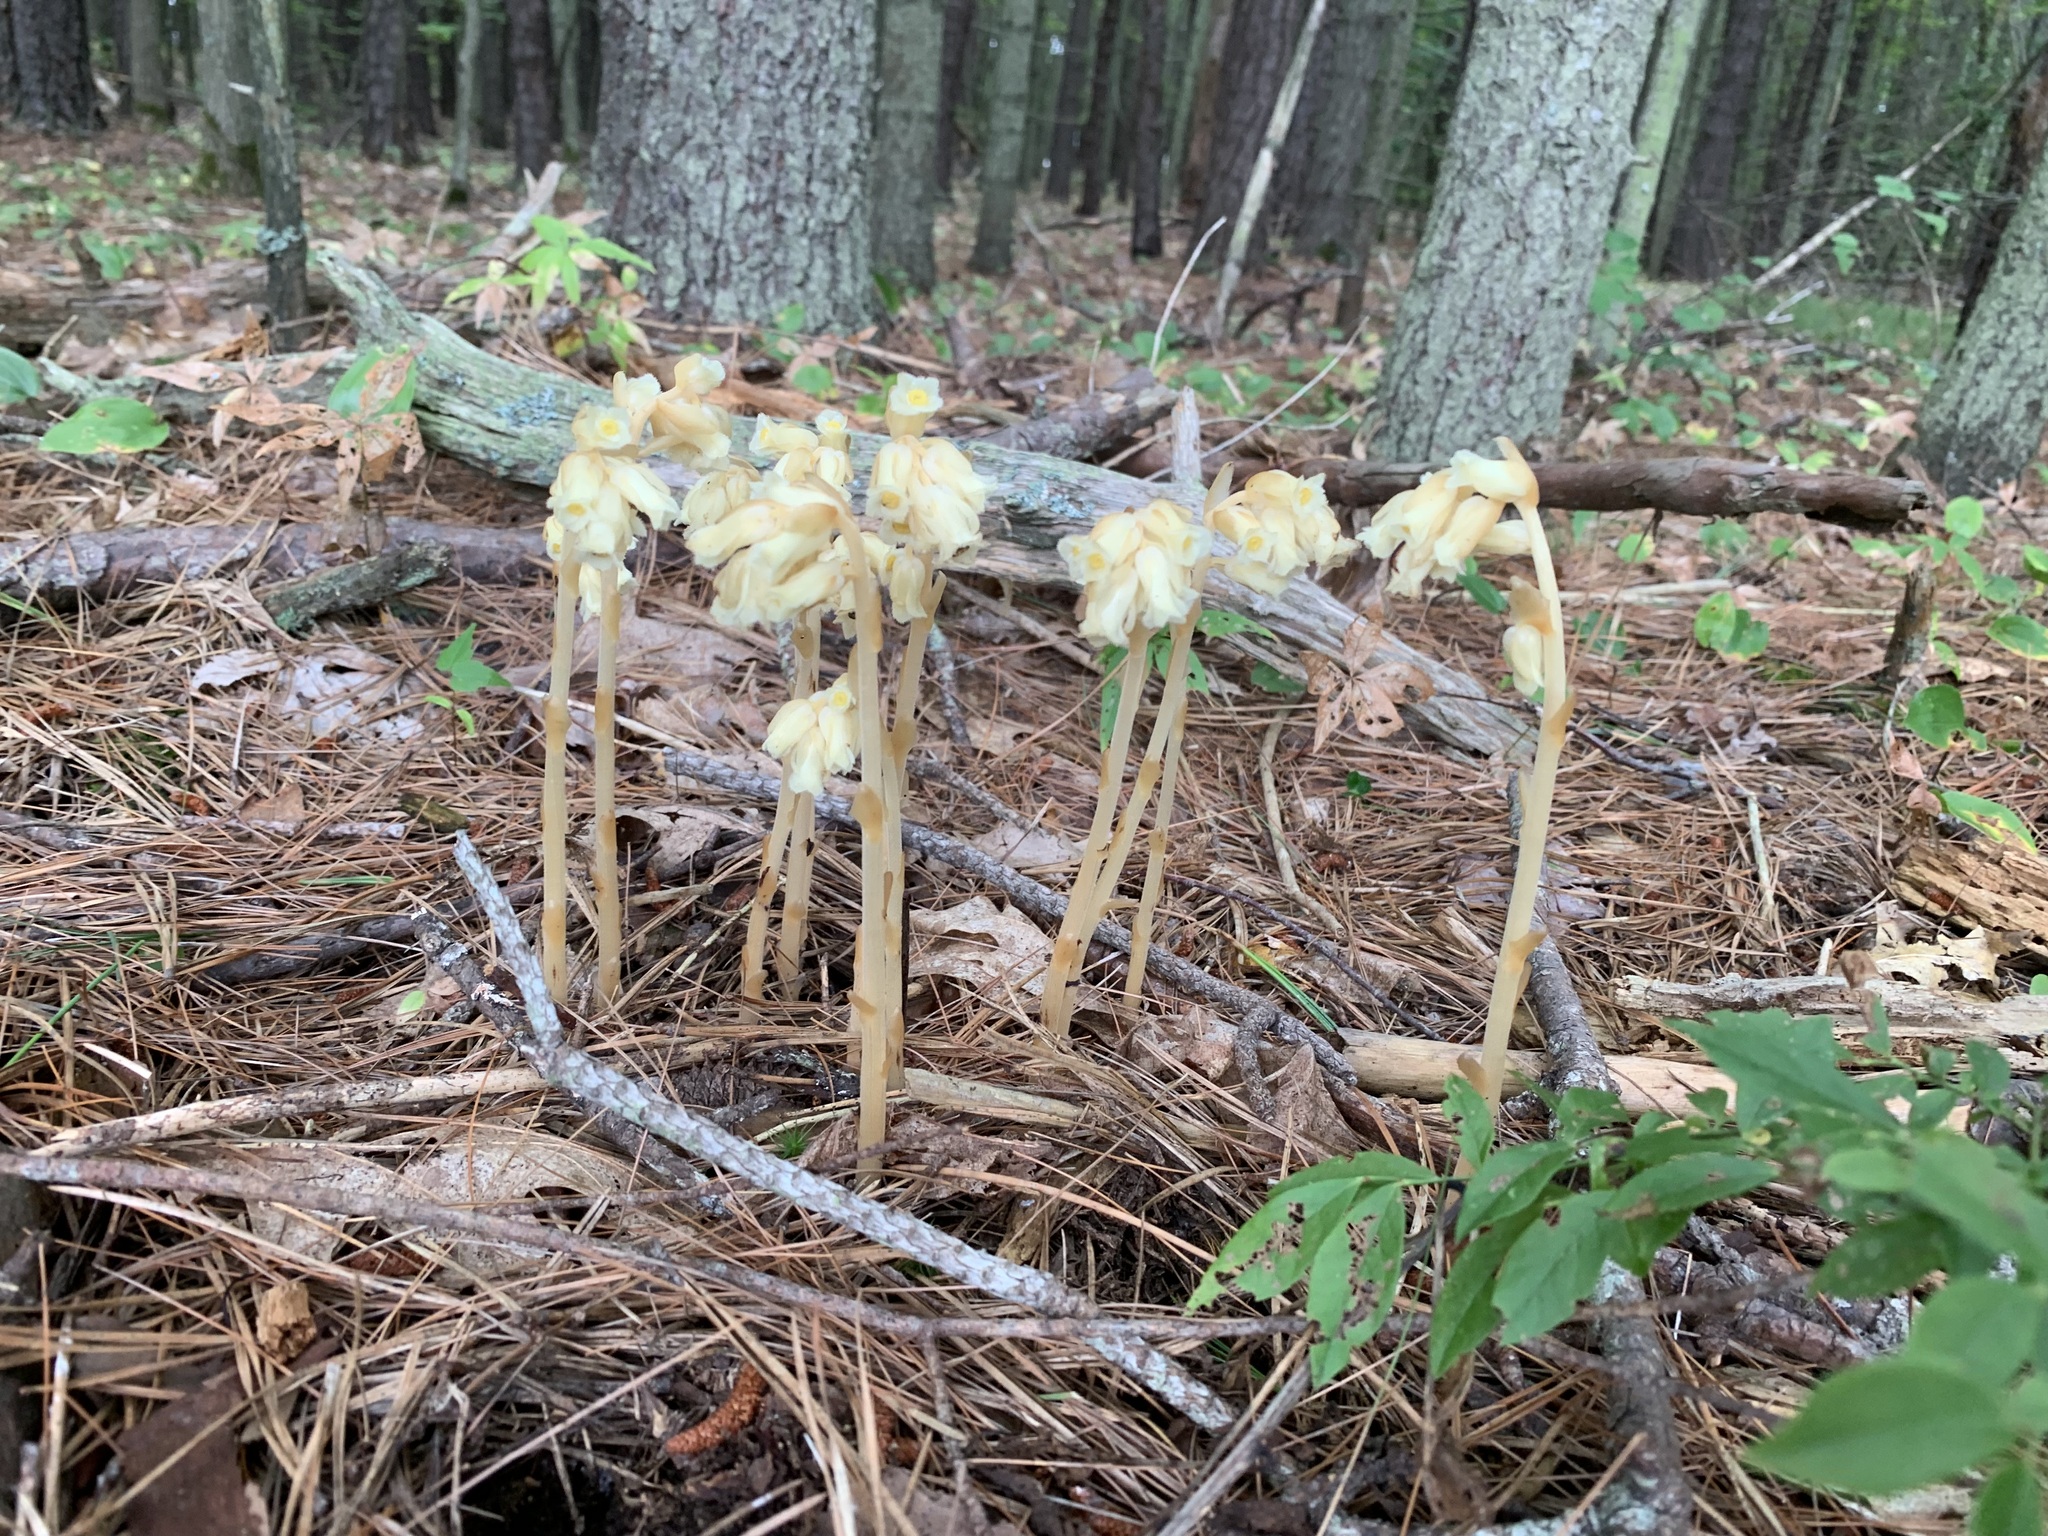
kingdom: Plantae
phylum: Tracheophyta
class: Magnoliopsida
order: Ericales
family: Ericaceae
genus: Hypopitys
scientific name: Hypopitys monotropa
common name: Yellow bird's-nest
